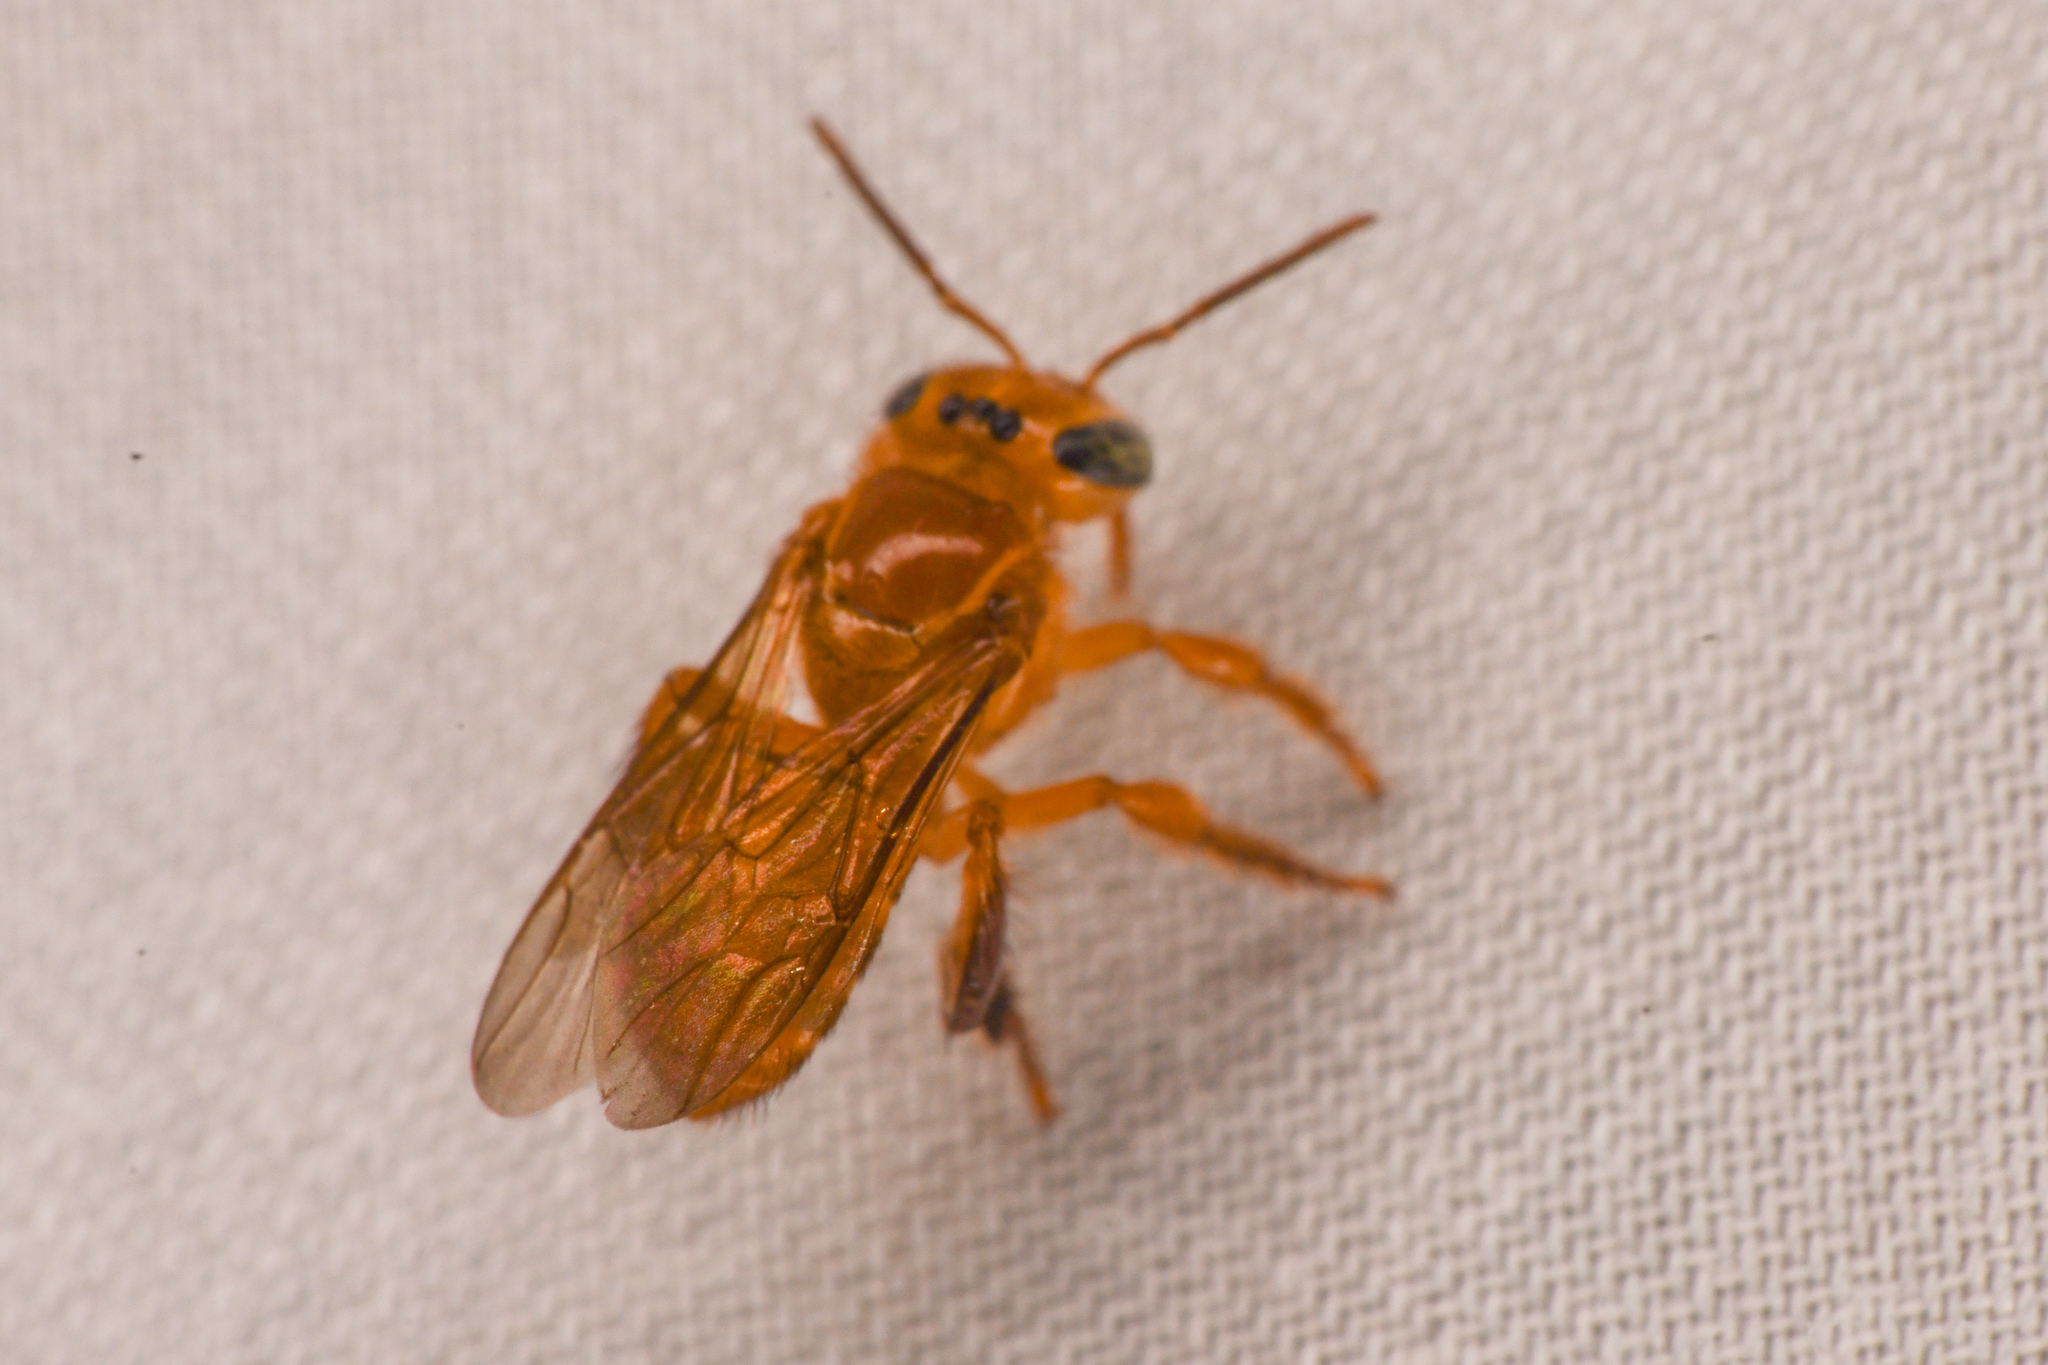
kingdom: Animalia
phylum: Arthropoda
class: Insecta
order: Hymenoptera
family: Apidae
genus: Partamona
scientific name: Partamona musarum
